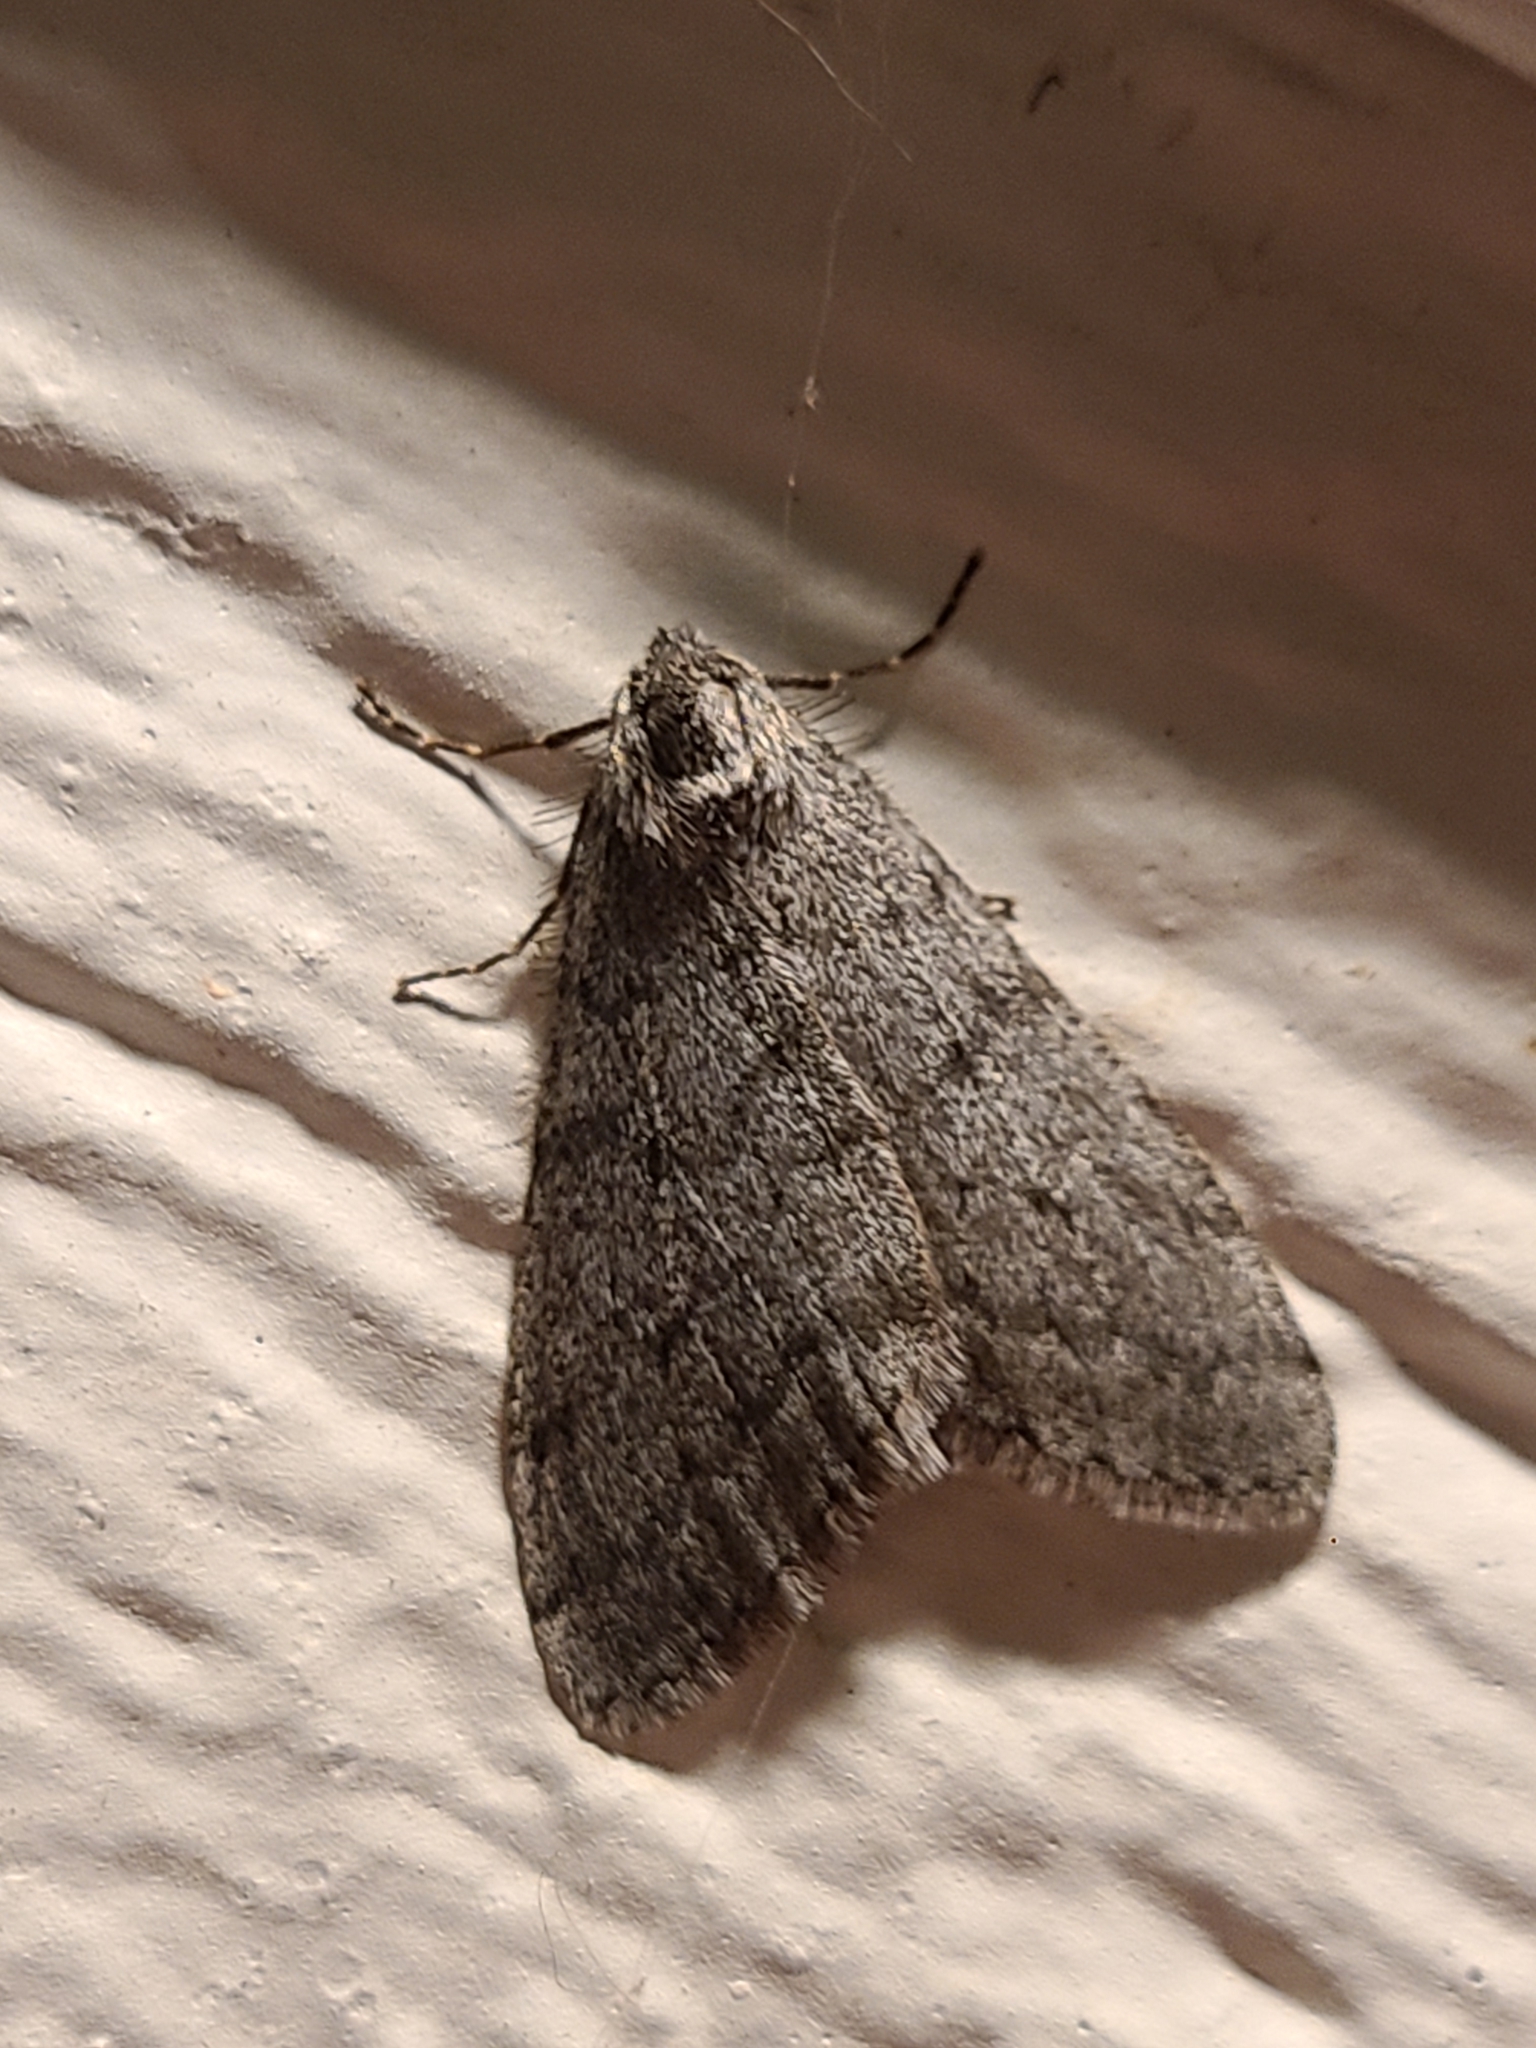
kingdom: Animalia
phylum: Arthropoda
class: Insecta
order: Lepidoptera
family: Geometridae
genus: Phigalia
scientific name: Phigalia plumogeraria
